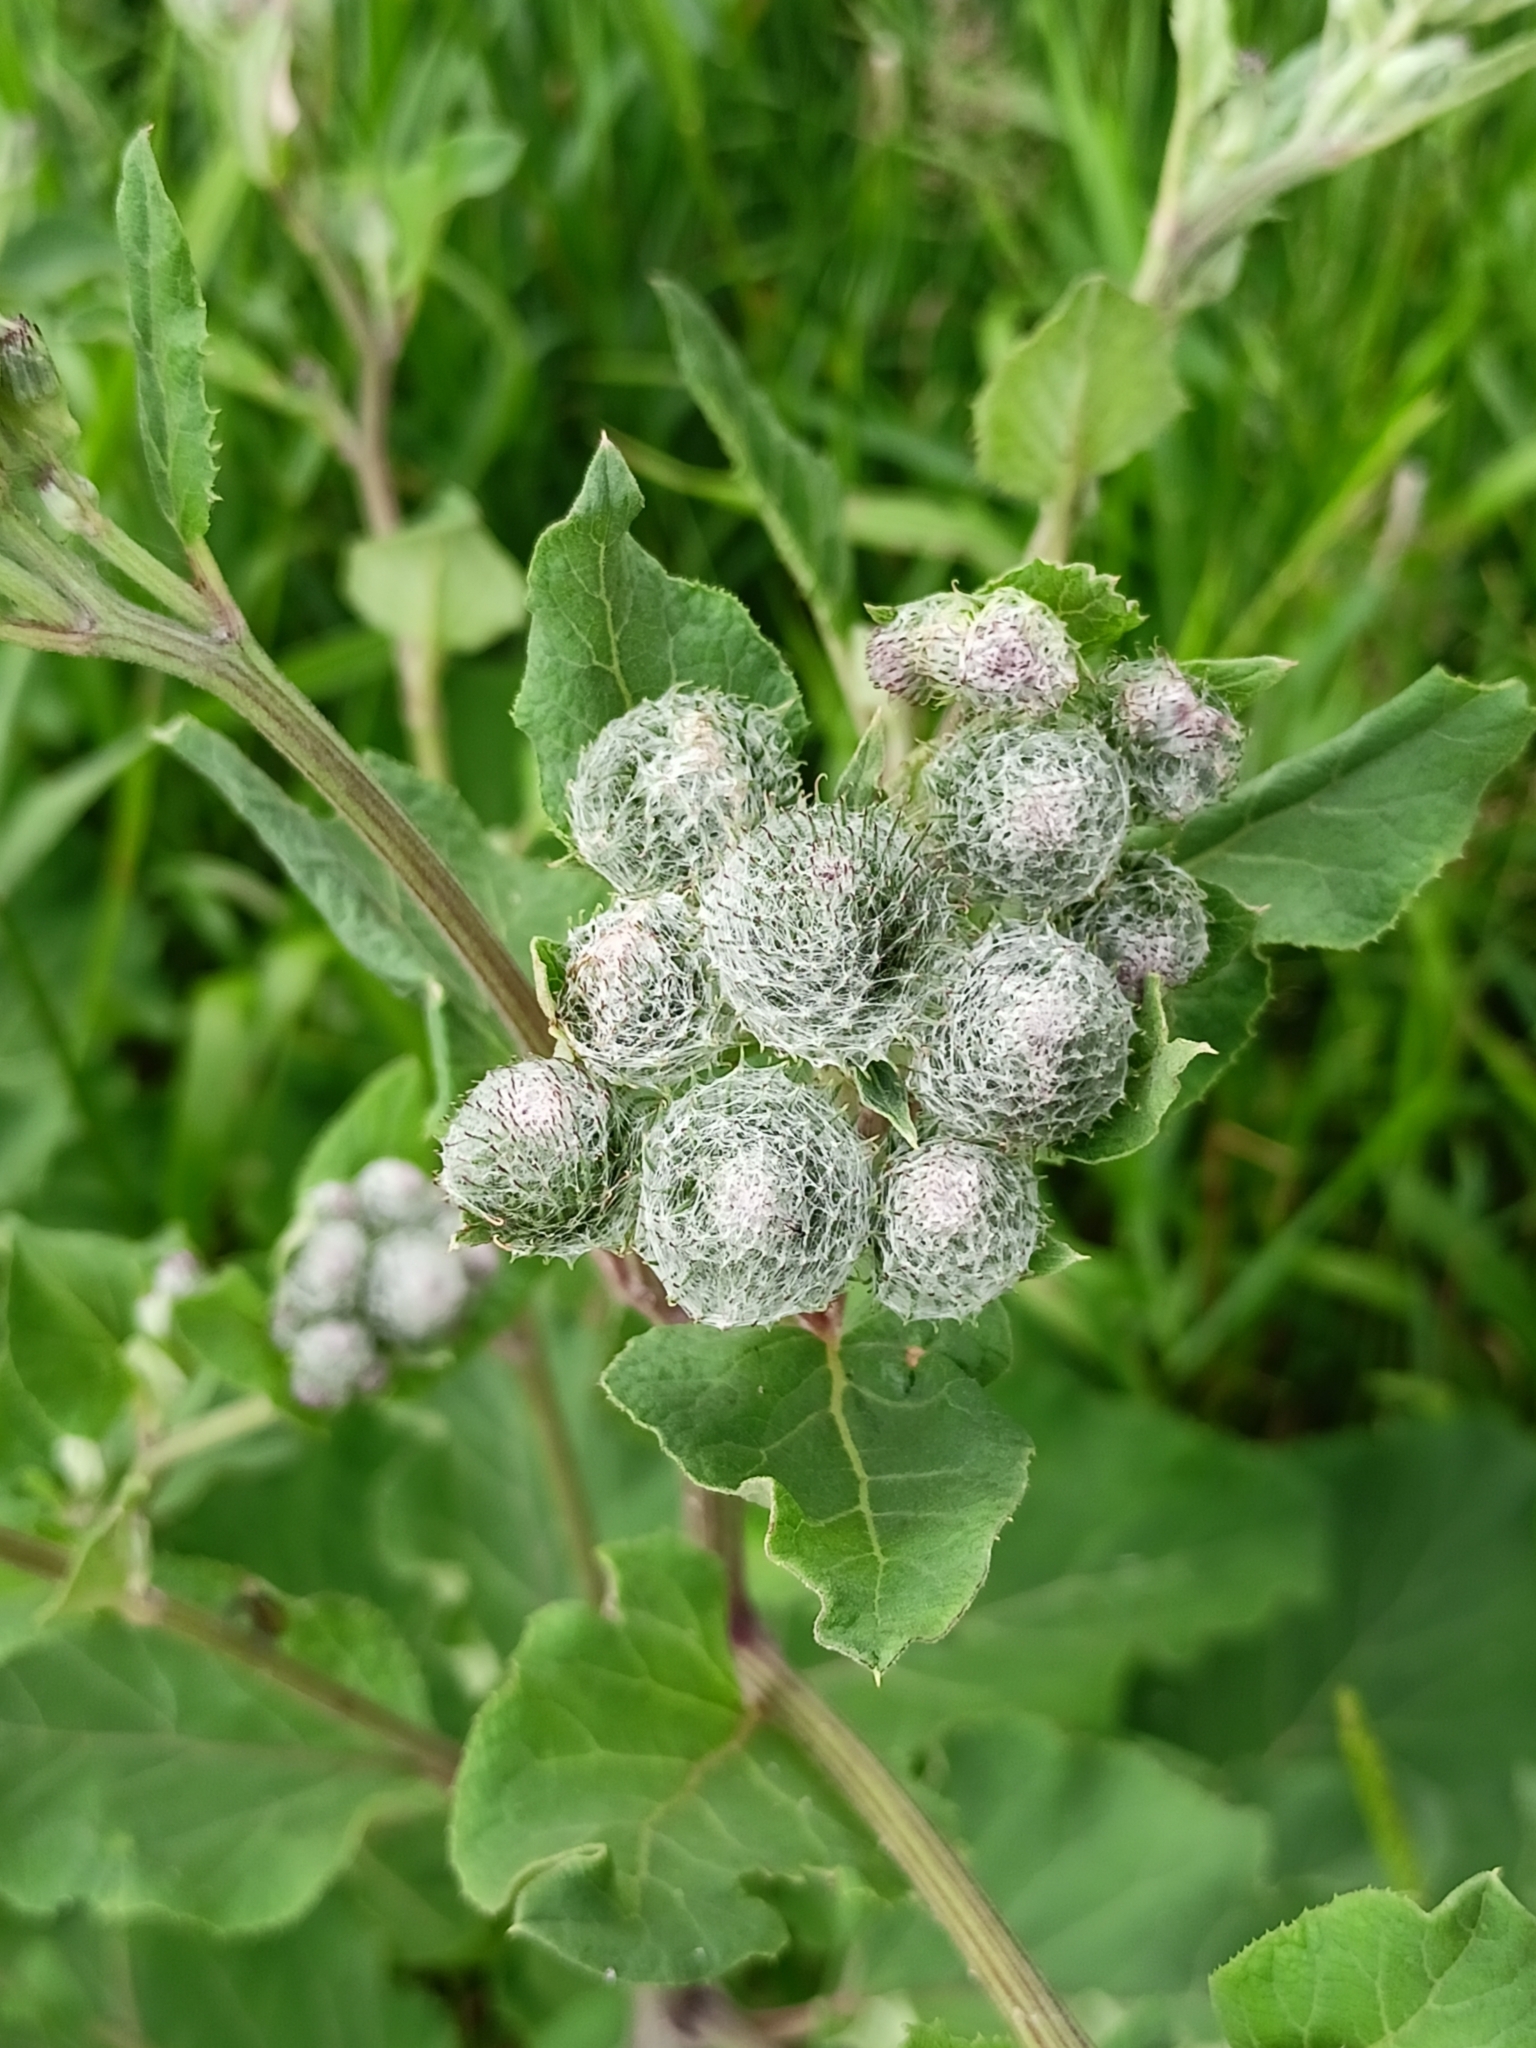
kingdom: Plantae
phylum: Tracheophyta
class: Magnoliopsida
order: Asterales
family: Asteraceae
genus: Arctium
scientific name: Arctium tomentosum
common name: Woolly burdock
